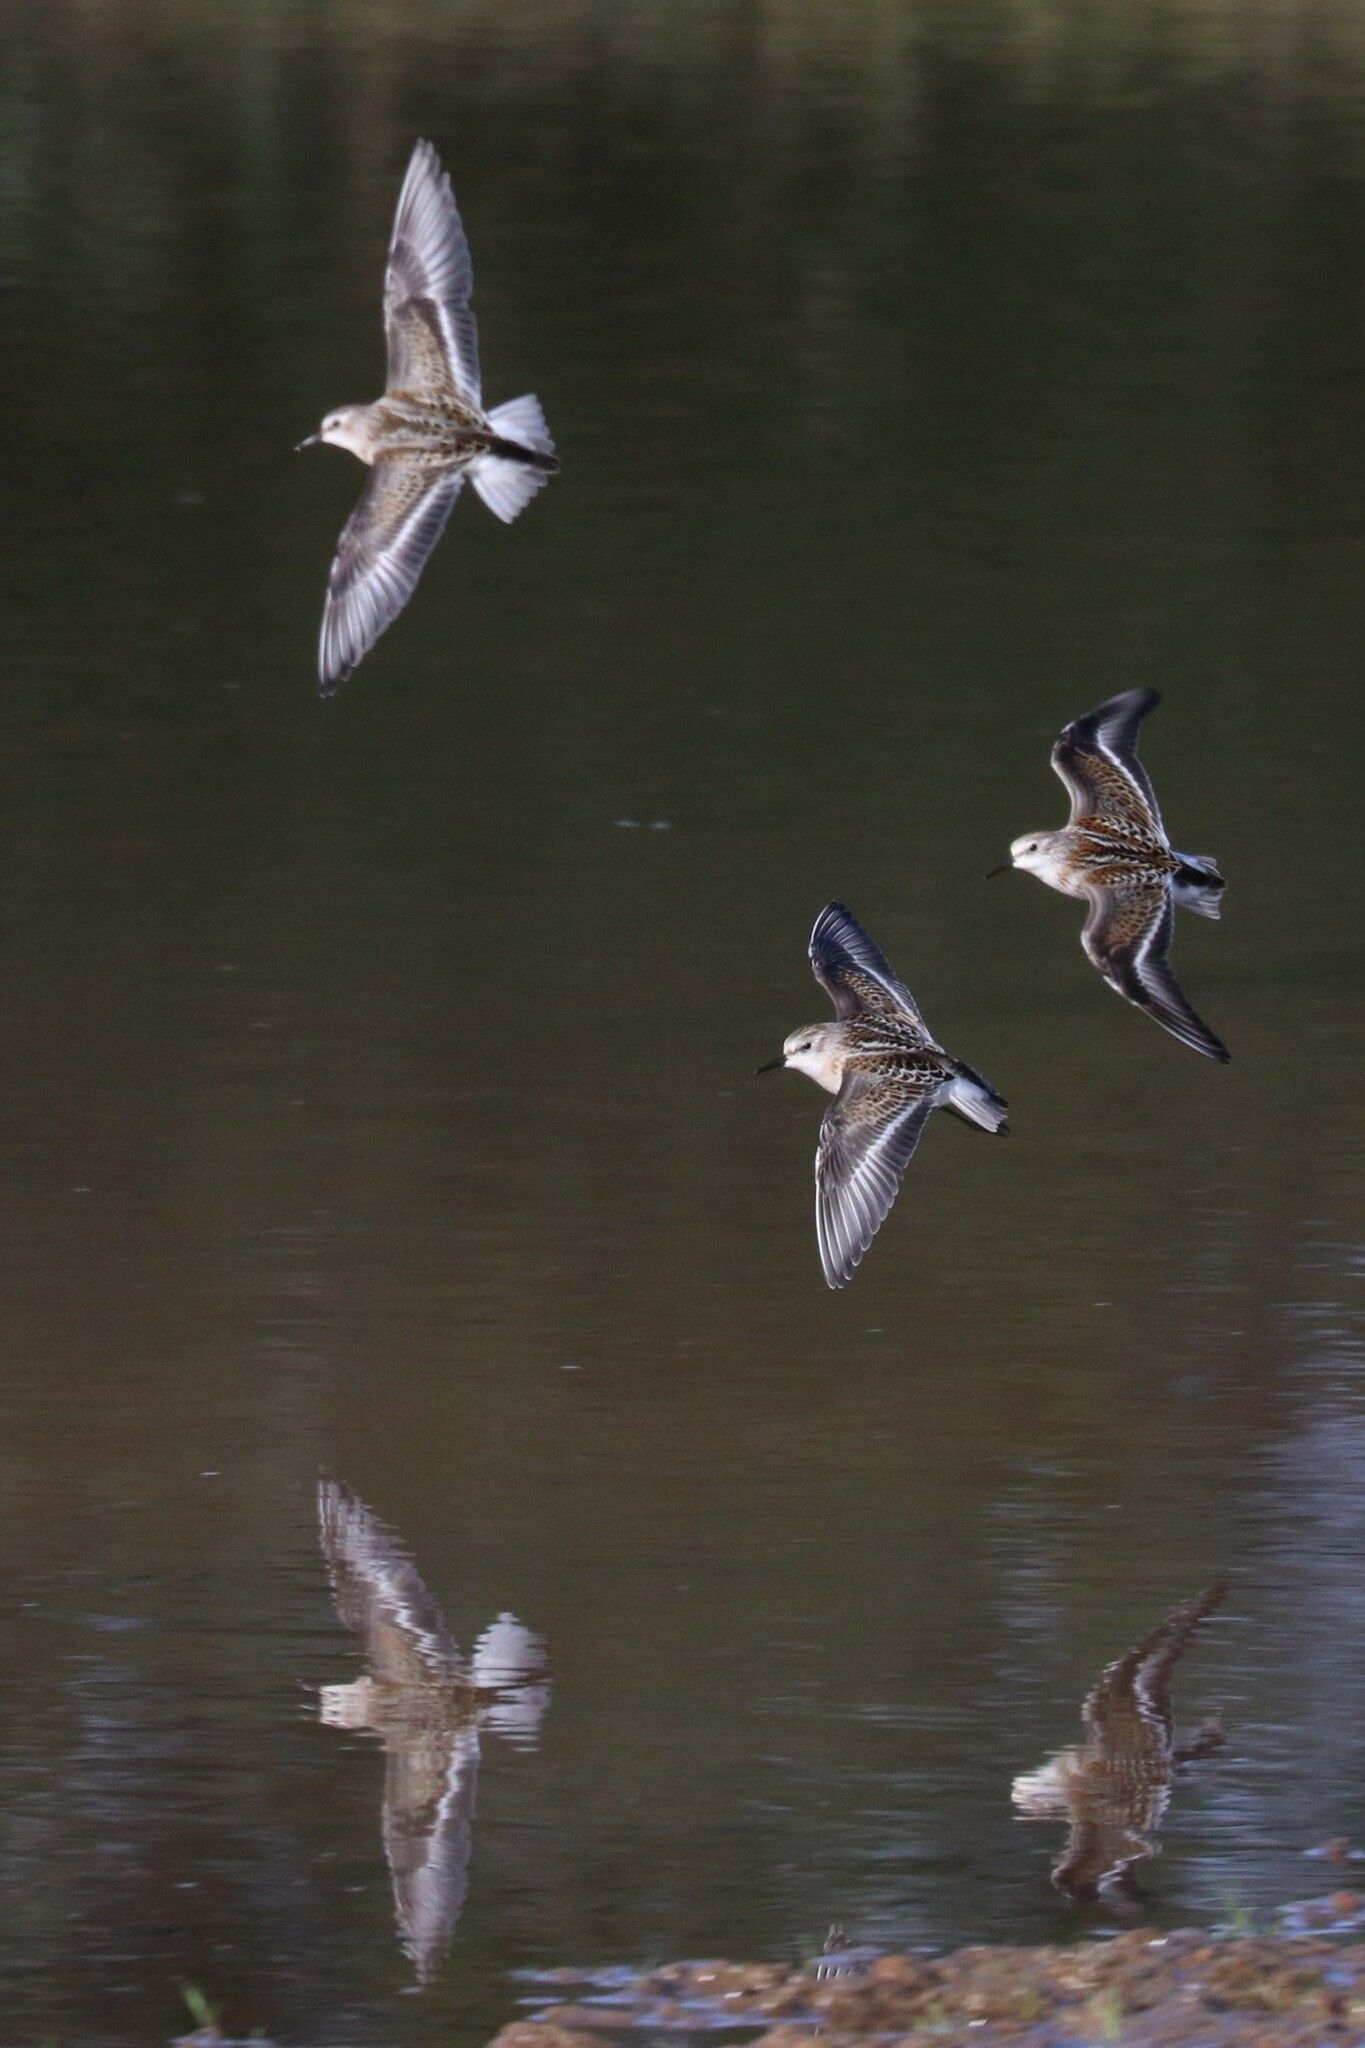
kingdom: Animalia
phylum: Chordata
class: Aves
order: Charadriiformes
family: Scolopacidae
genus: Calidris
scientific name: Calidris minuta
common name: Little stint
